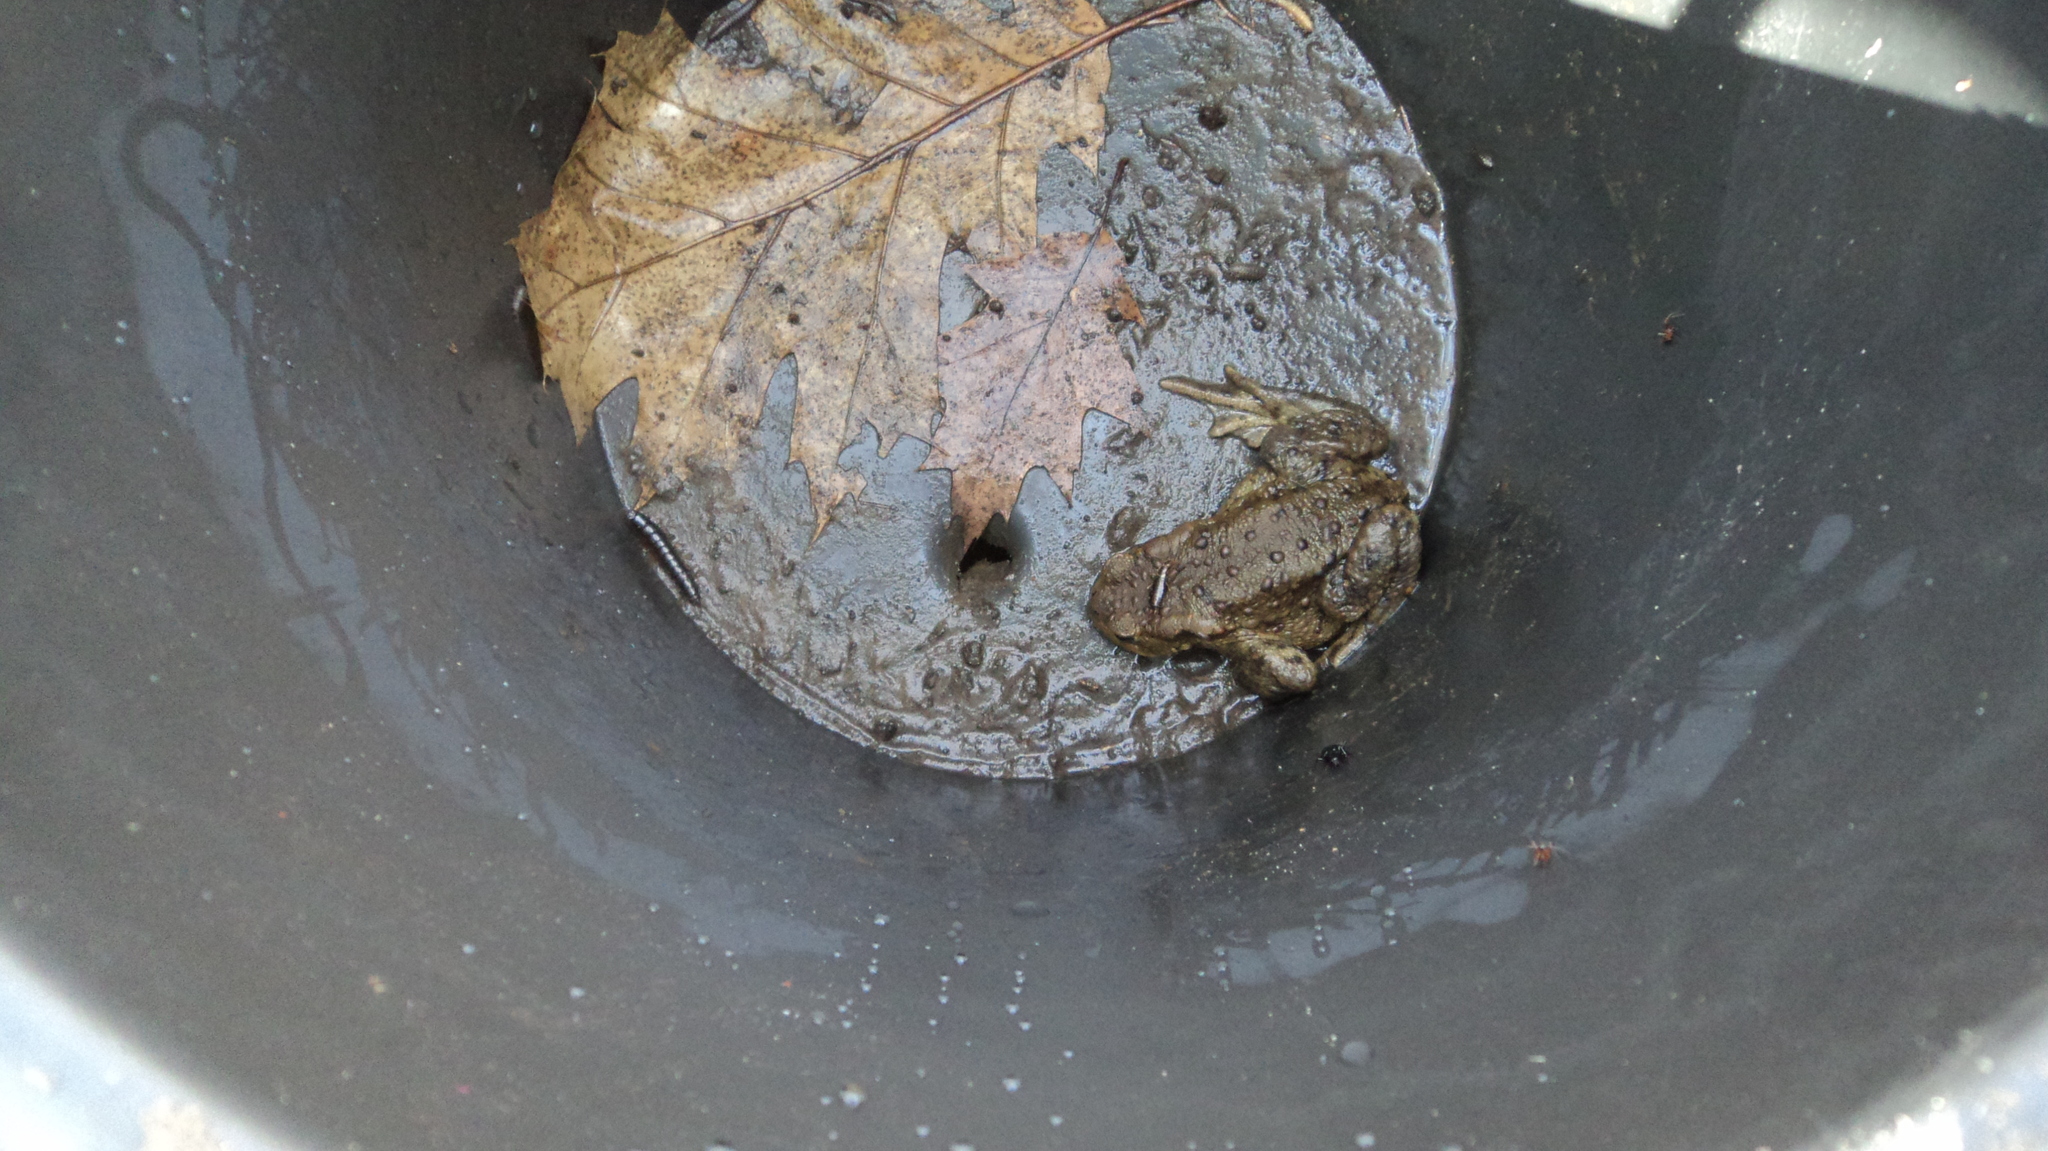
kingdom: Animalia
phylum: Chordata
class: Amphibia
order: Anura
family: Bufonidae
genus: Bufo
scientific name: Bufo bufo
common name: Common toad
